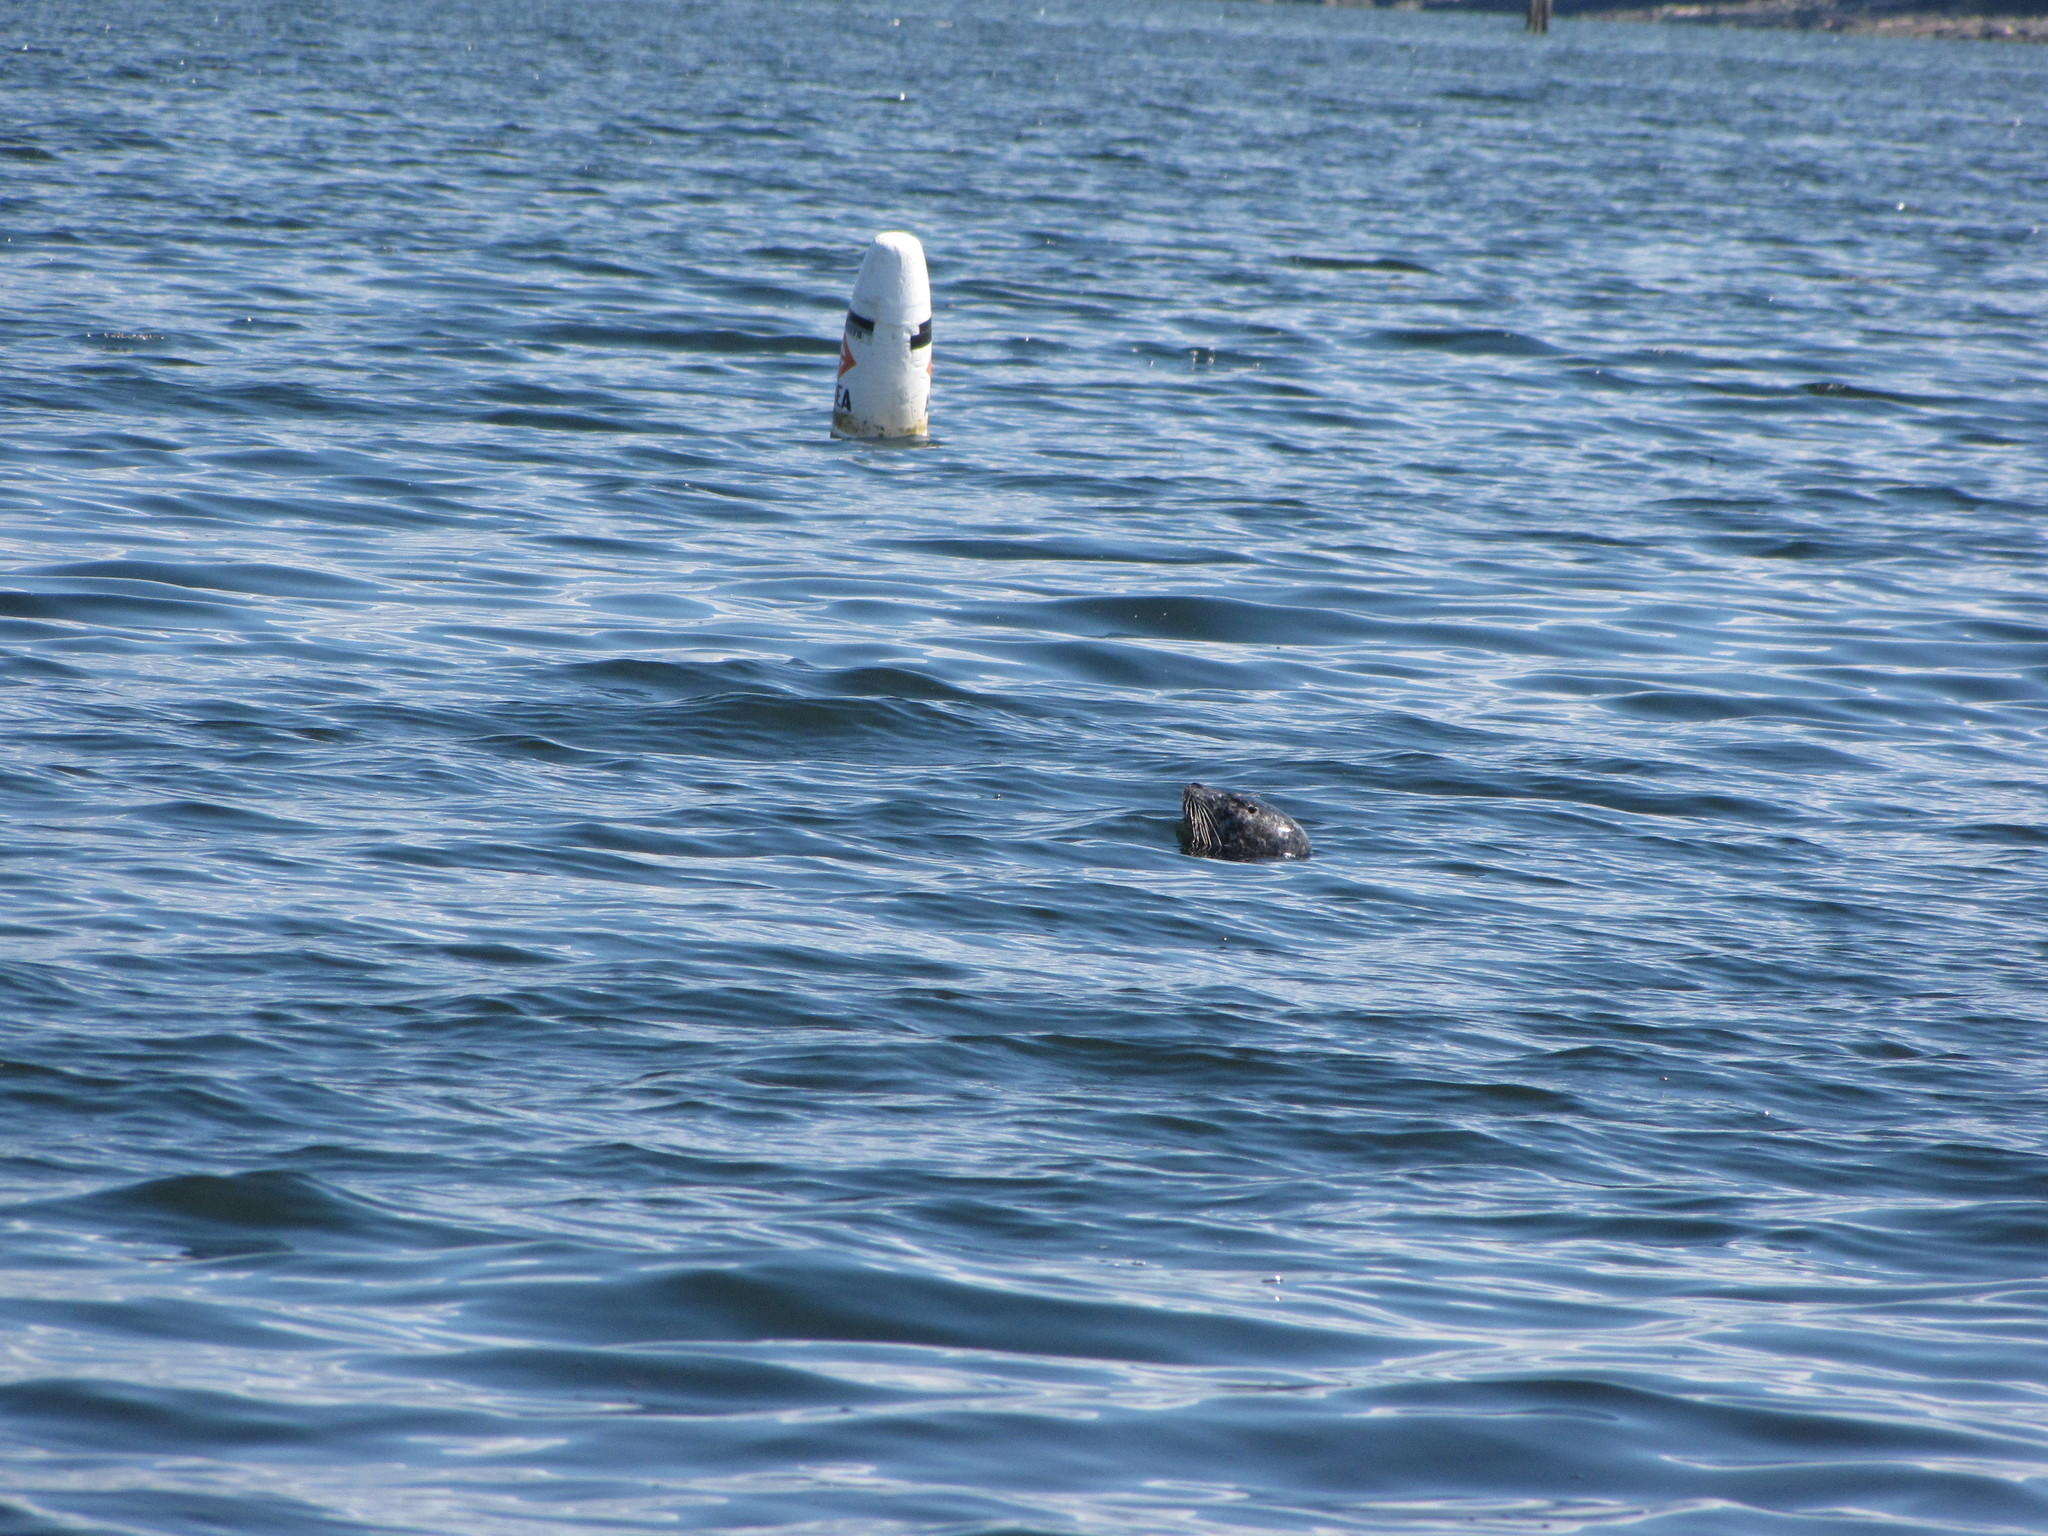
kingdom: Animalia
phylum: Chordata
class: Mammalia
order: Carnivora
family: Phocidae
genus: Phoca
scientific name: Phoca vitulina
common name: Harbor seal
